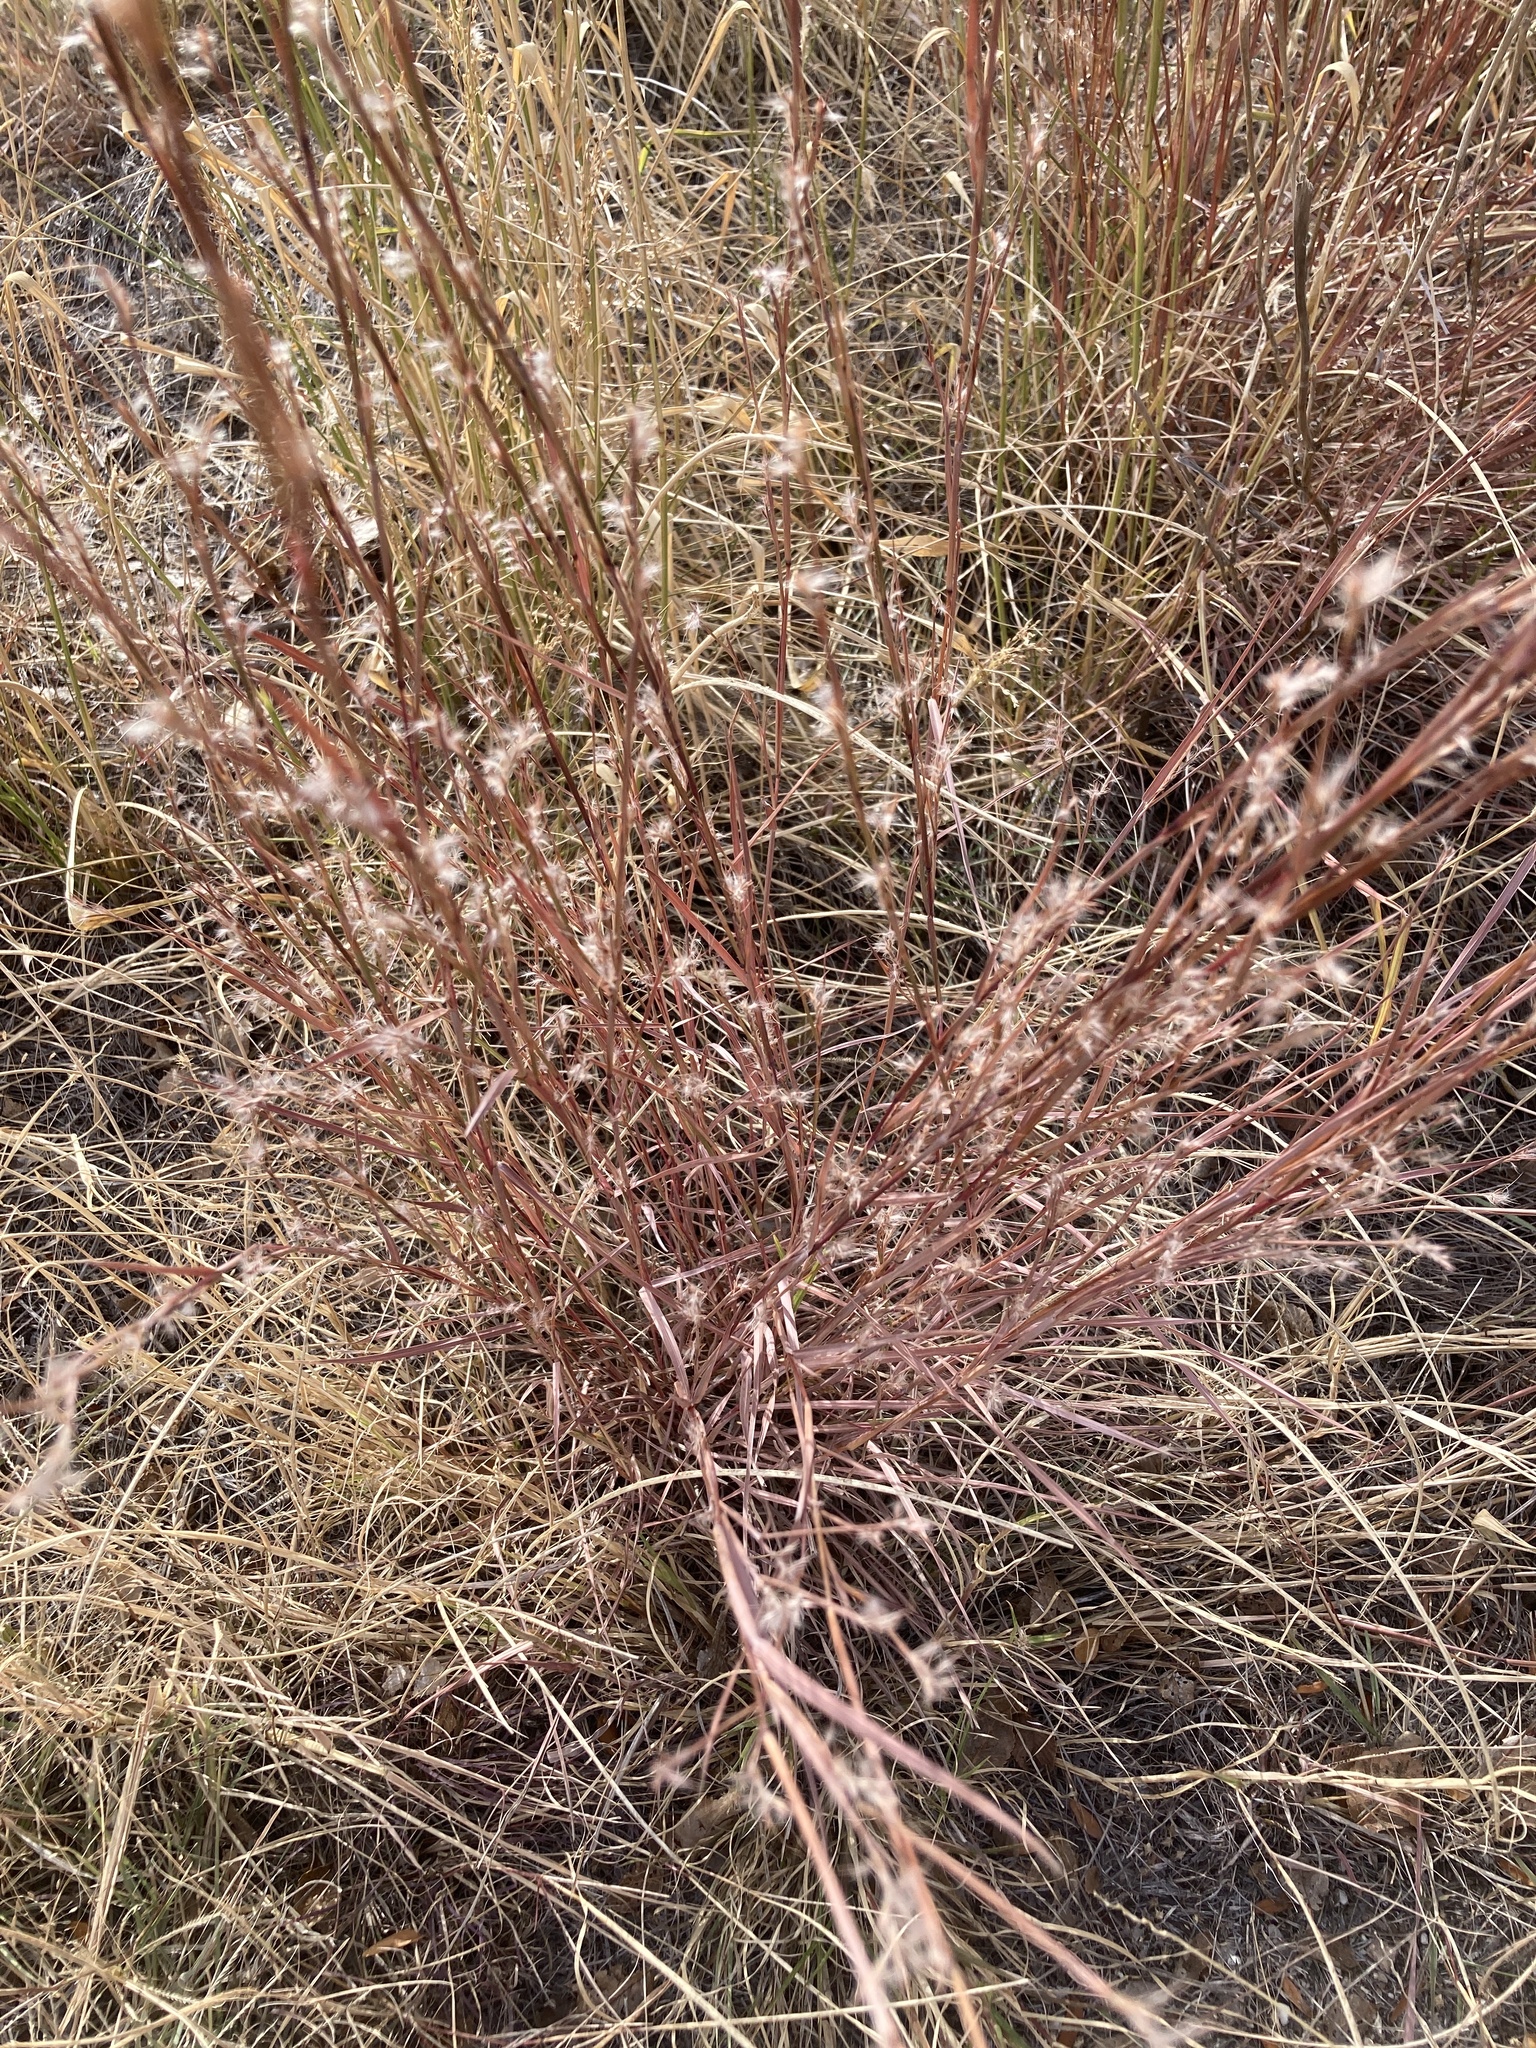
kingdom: Plantae
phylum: Tracheophyta
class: Liliopsida
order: Poales
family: Poaceae
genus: Schizachyrium
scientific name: Schizachyrium scoparium
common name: Little bluestem
